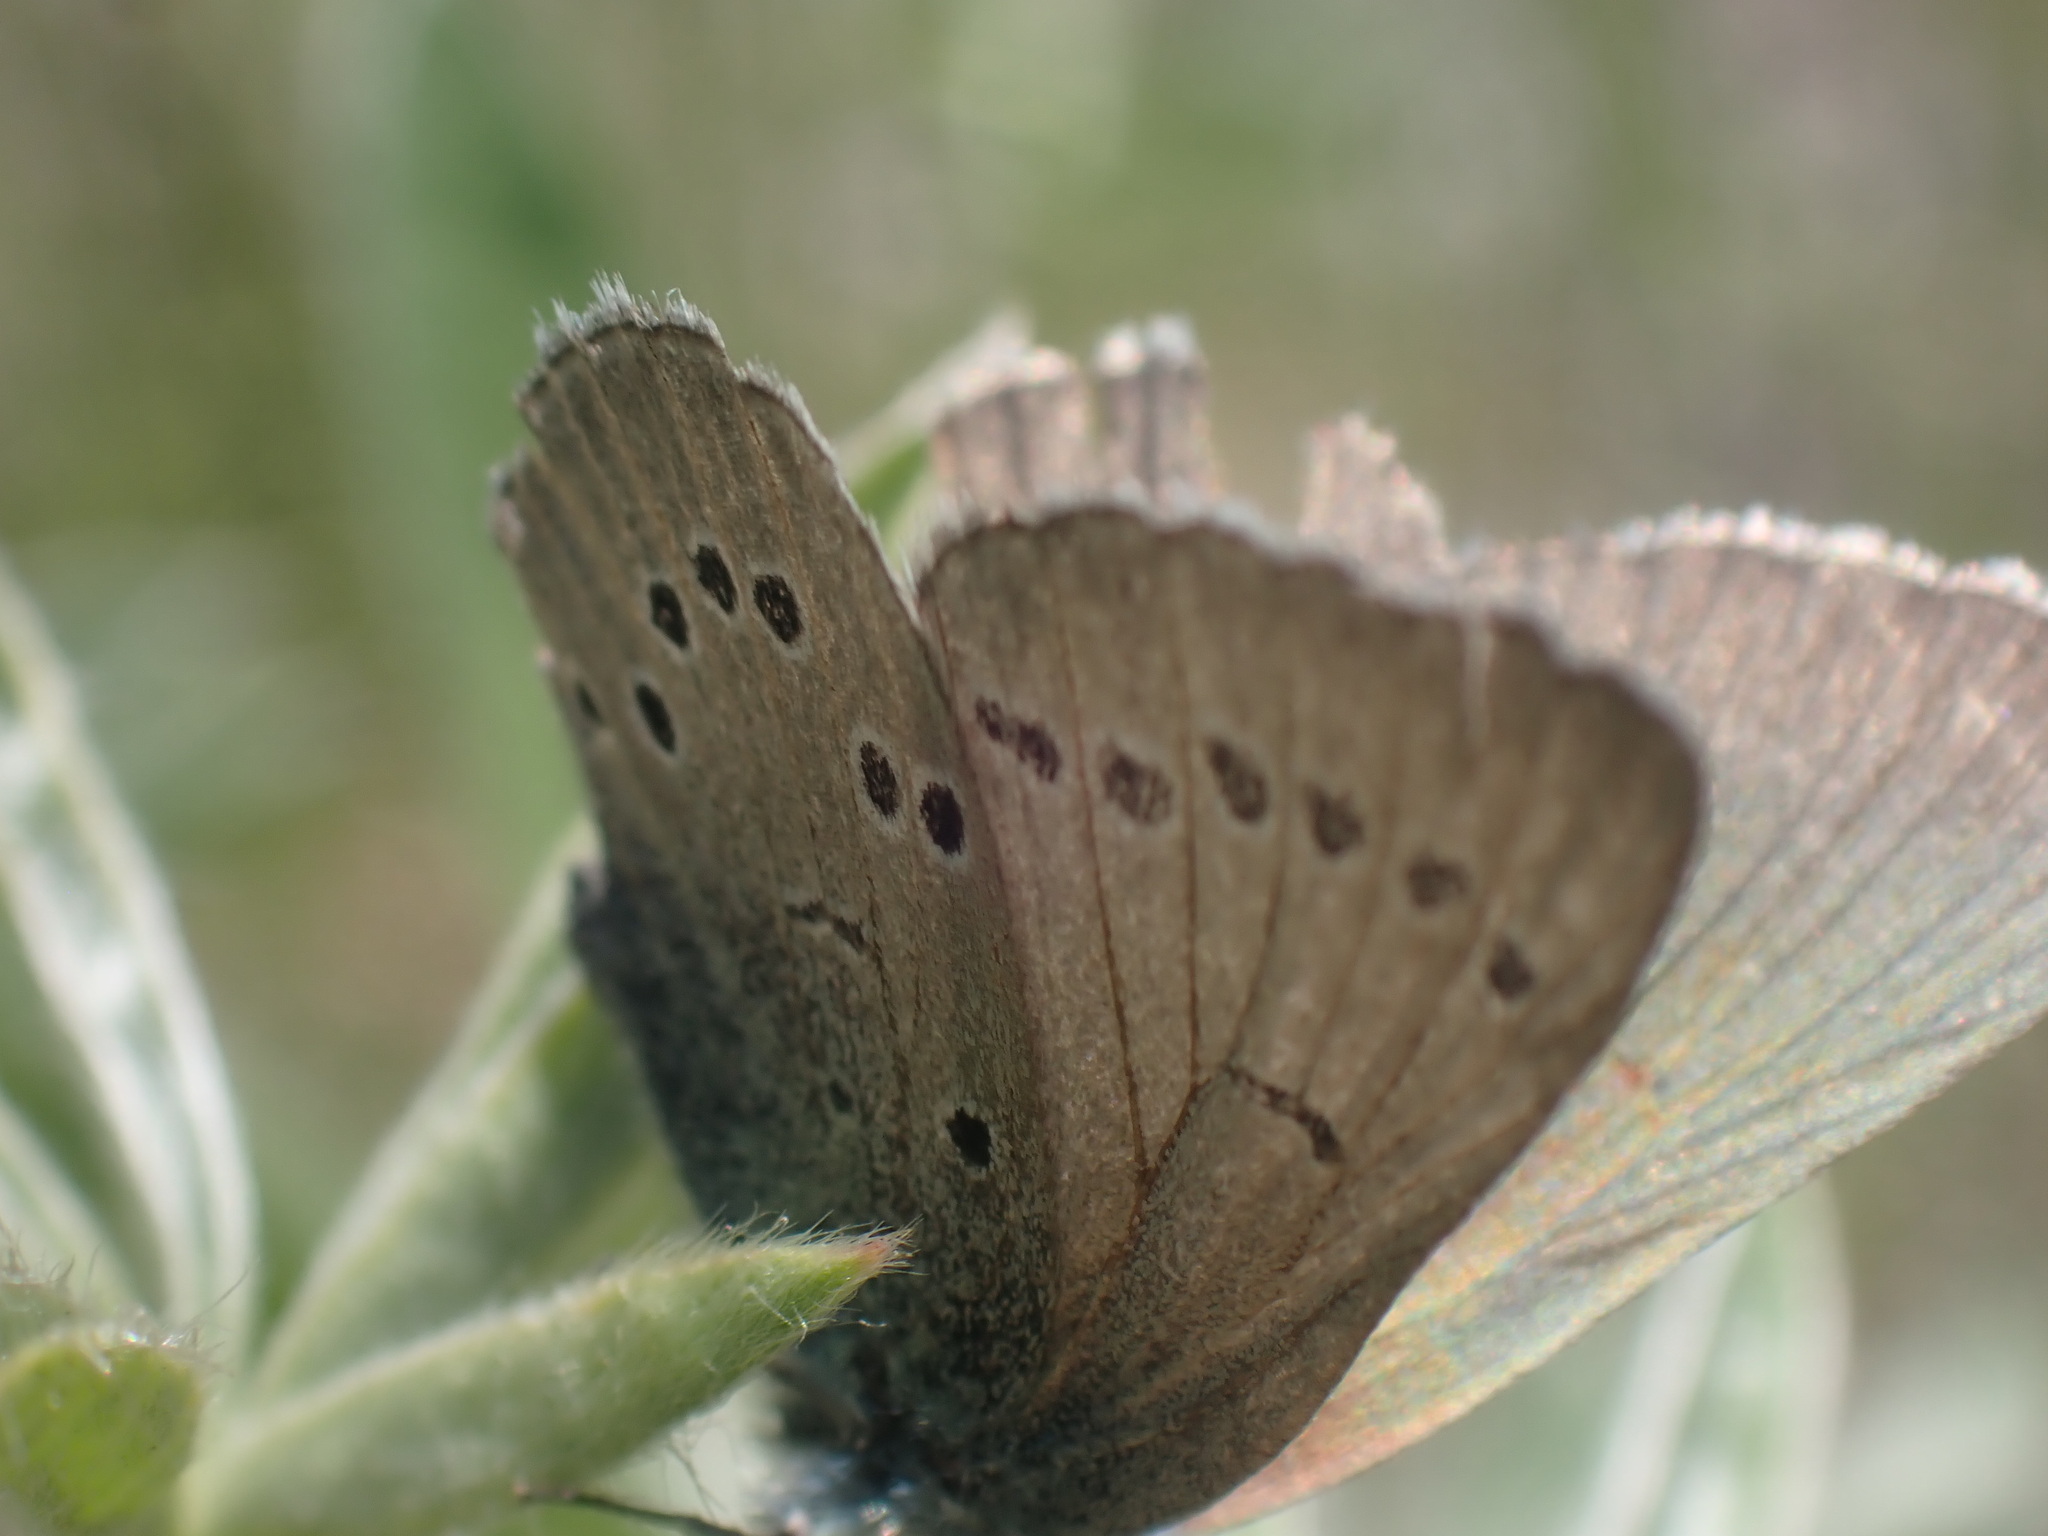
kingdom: Animalia
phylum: Arthropoda
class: Insecta
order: Lepidoptera
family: Lycaenidae
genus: Glaucopsyche
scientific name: Glaucopsyche lygdamus
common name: Silvery blue
